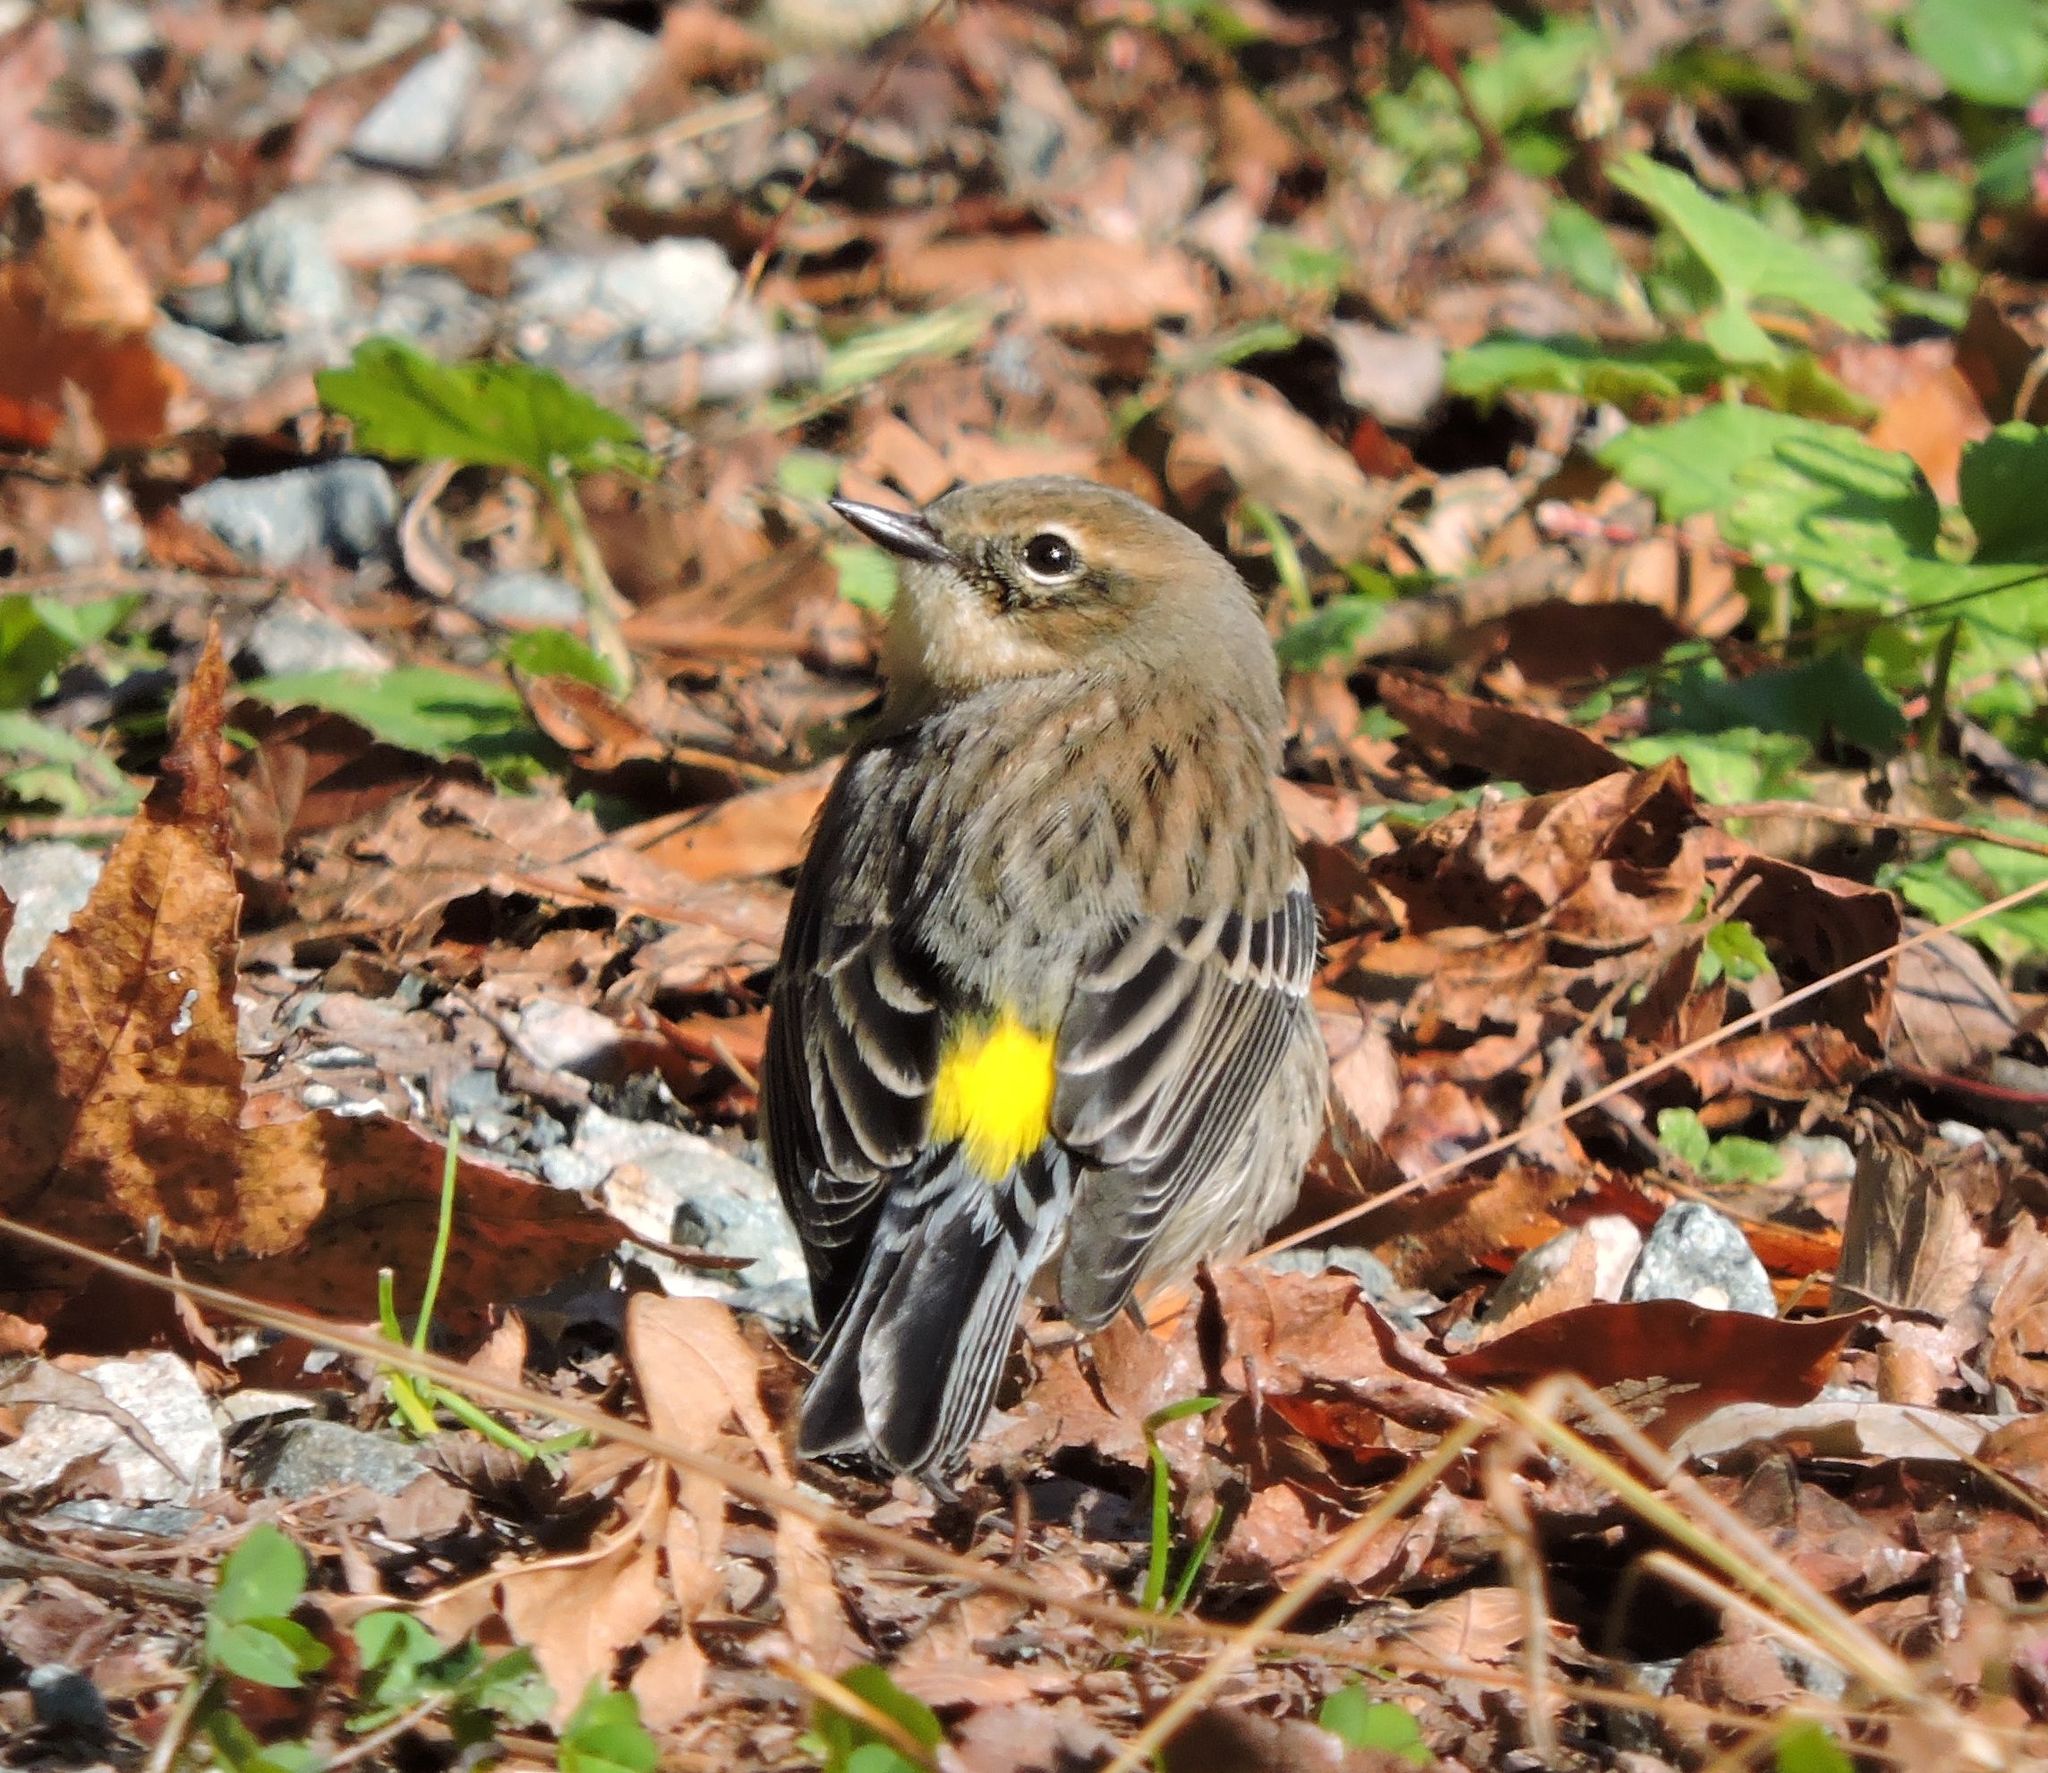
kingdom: Animalia
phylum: Chordata
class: Aves
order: Passeriformes
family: Parulidae
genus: Setophaga
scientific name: Setophaga coronata
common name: Myrtle warbler
